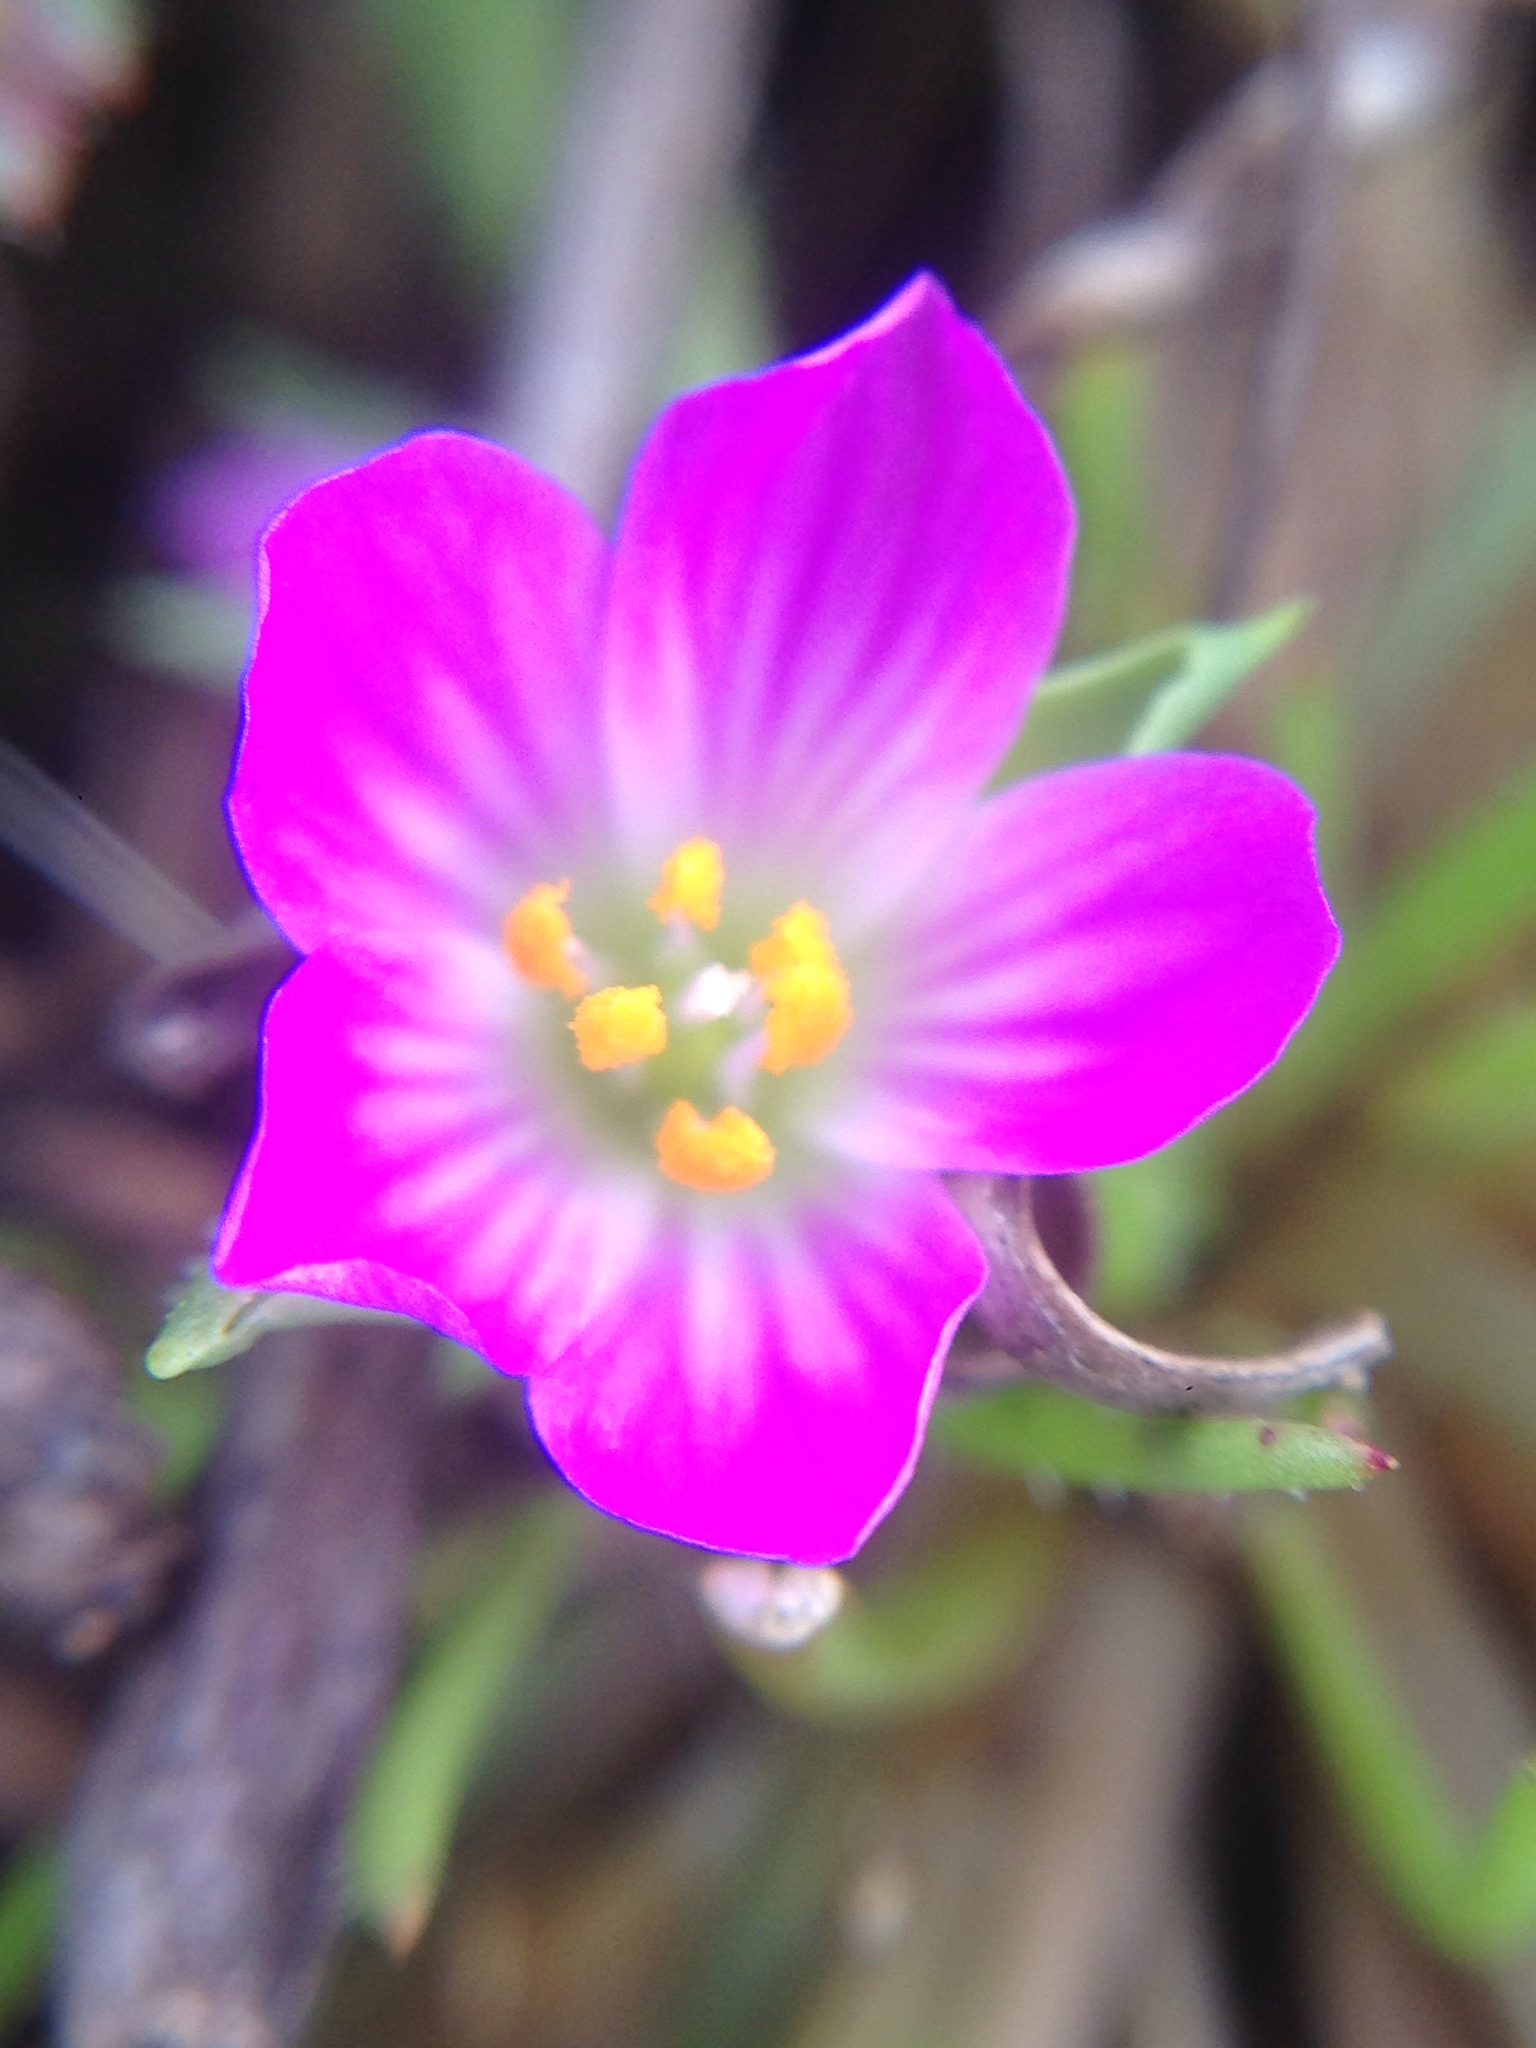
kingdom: Plantae
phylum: Tracheophyta
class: Magnoliopsida
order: Caryophyllales
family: Montiaceae
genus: Calandrinia
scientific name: Calandrinia menziesii
